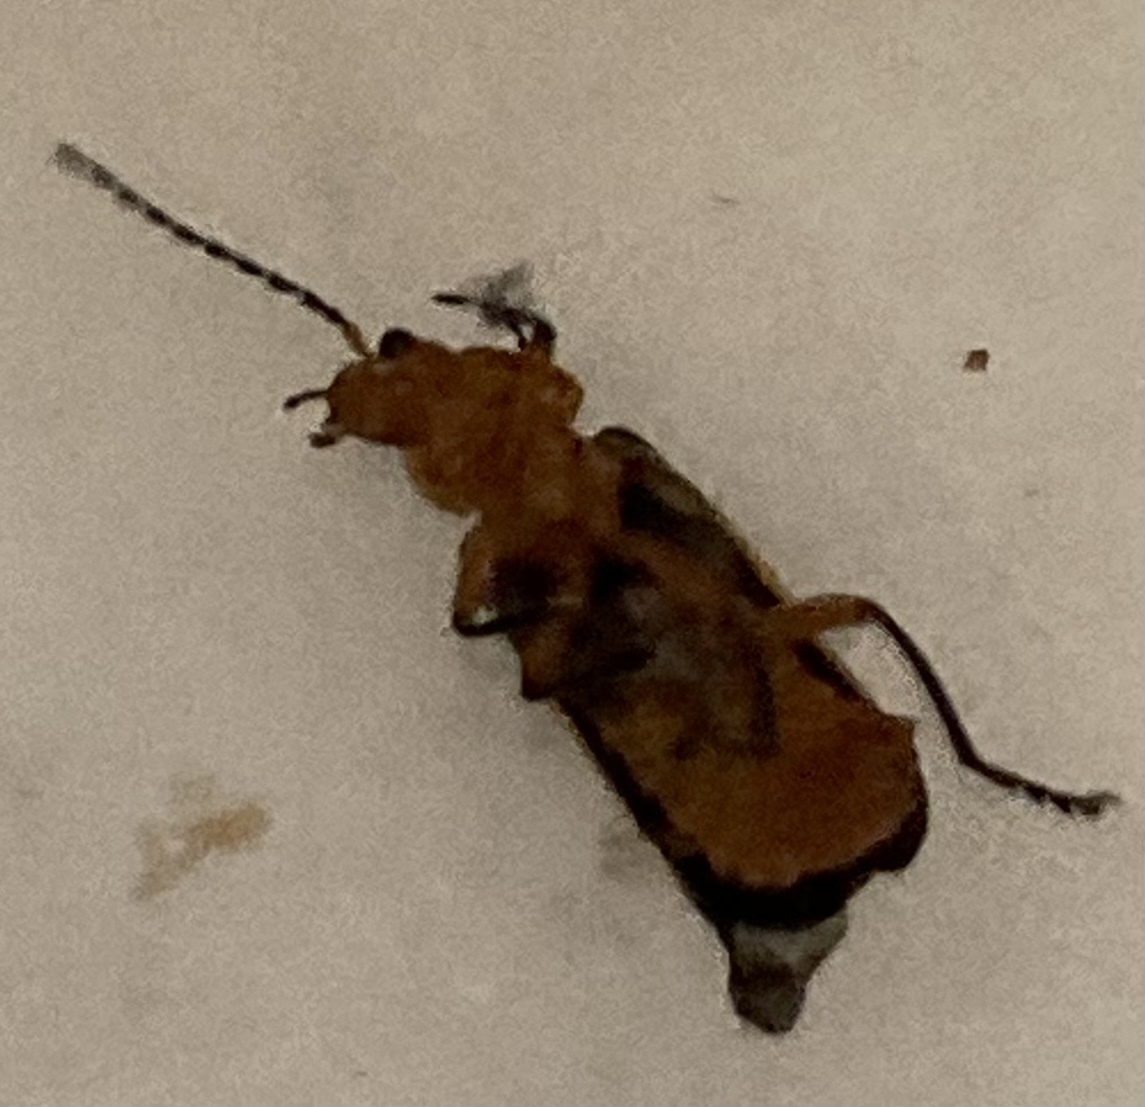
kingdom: Animalia
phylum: Arthropoda
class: Insecta
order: Coleoptera
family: Cantharidae
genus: Atalantycha
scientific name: Atalantycha bilineata
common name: Two-lined leatherwing
